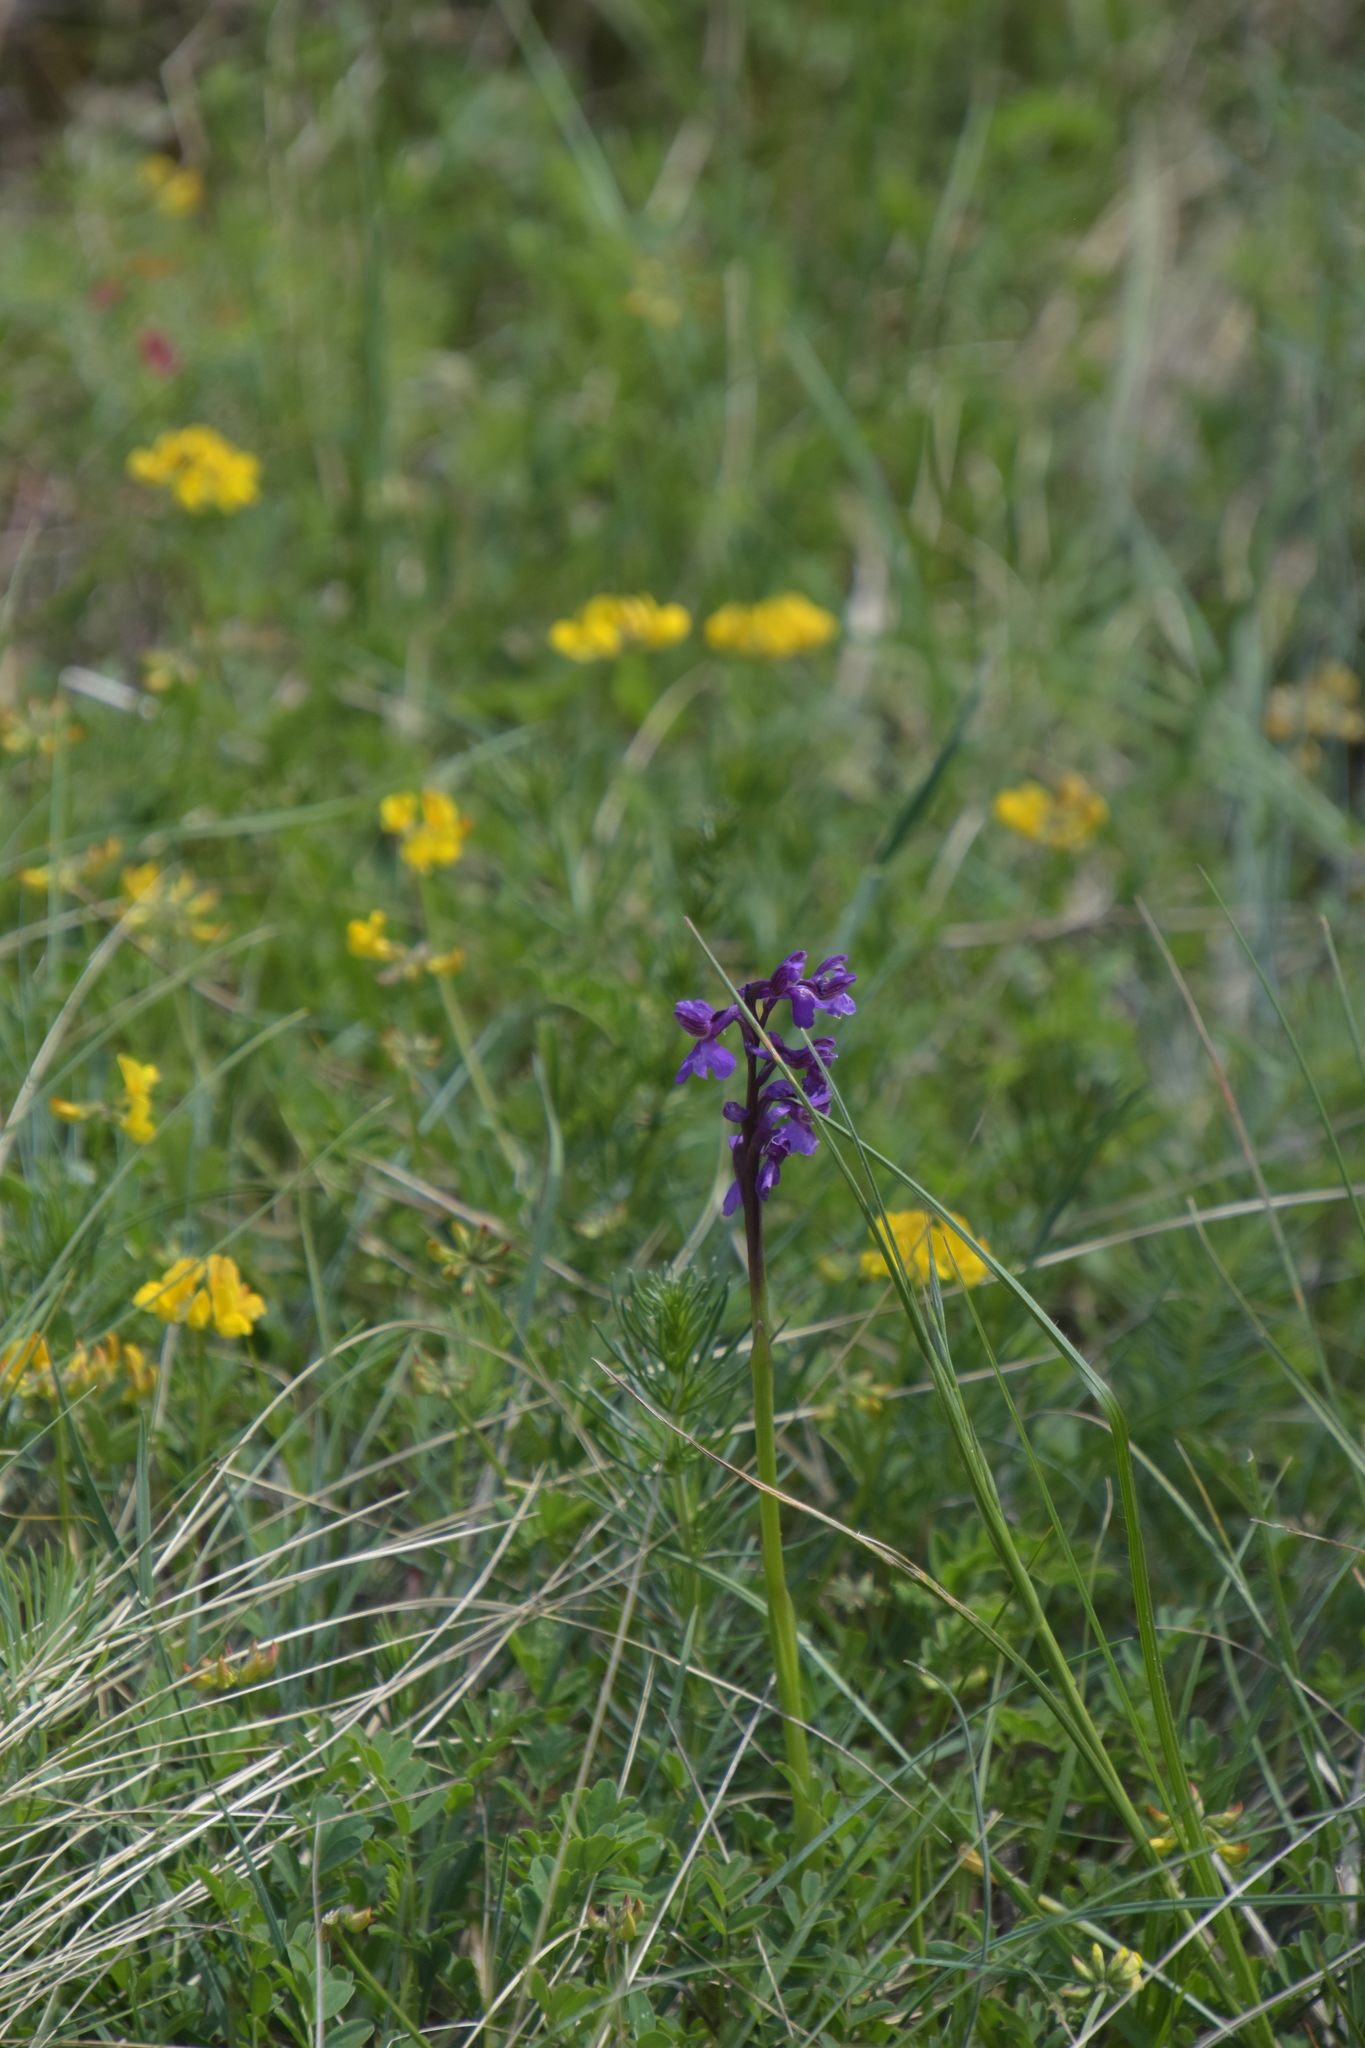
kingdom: Plantae
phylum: Tracheophyta
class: Liliopsida
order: Asparagales
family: Orchidaceae
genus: Anacamptis
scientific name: Anacamptis morio
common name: Green-winged orchid
